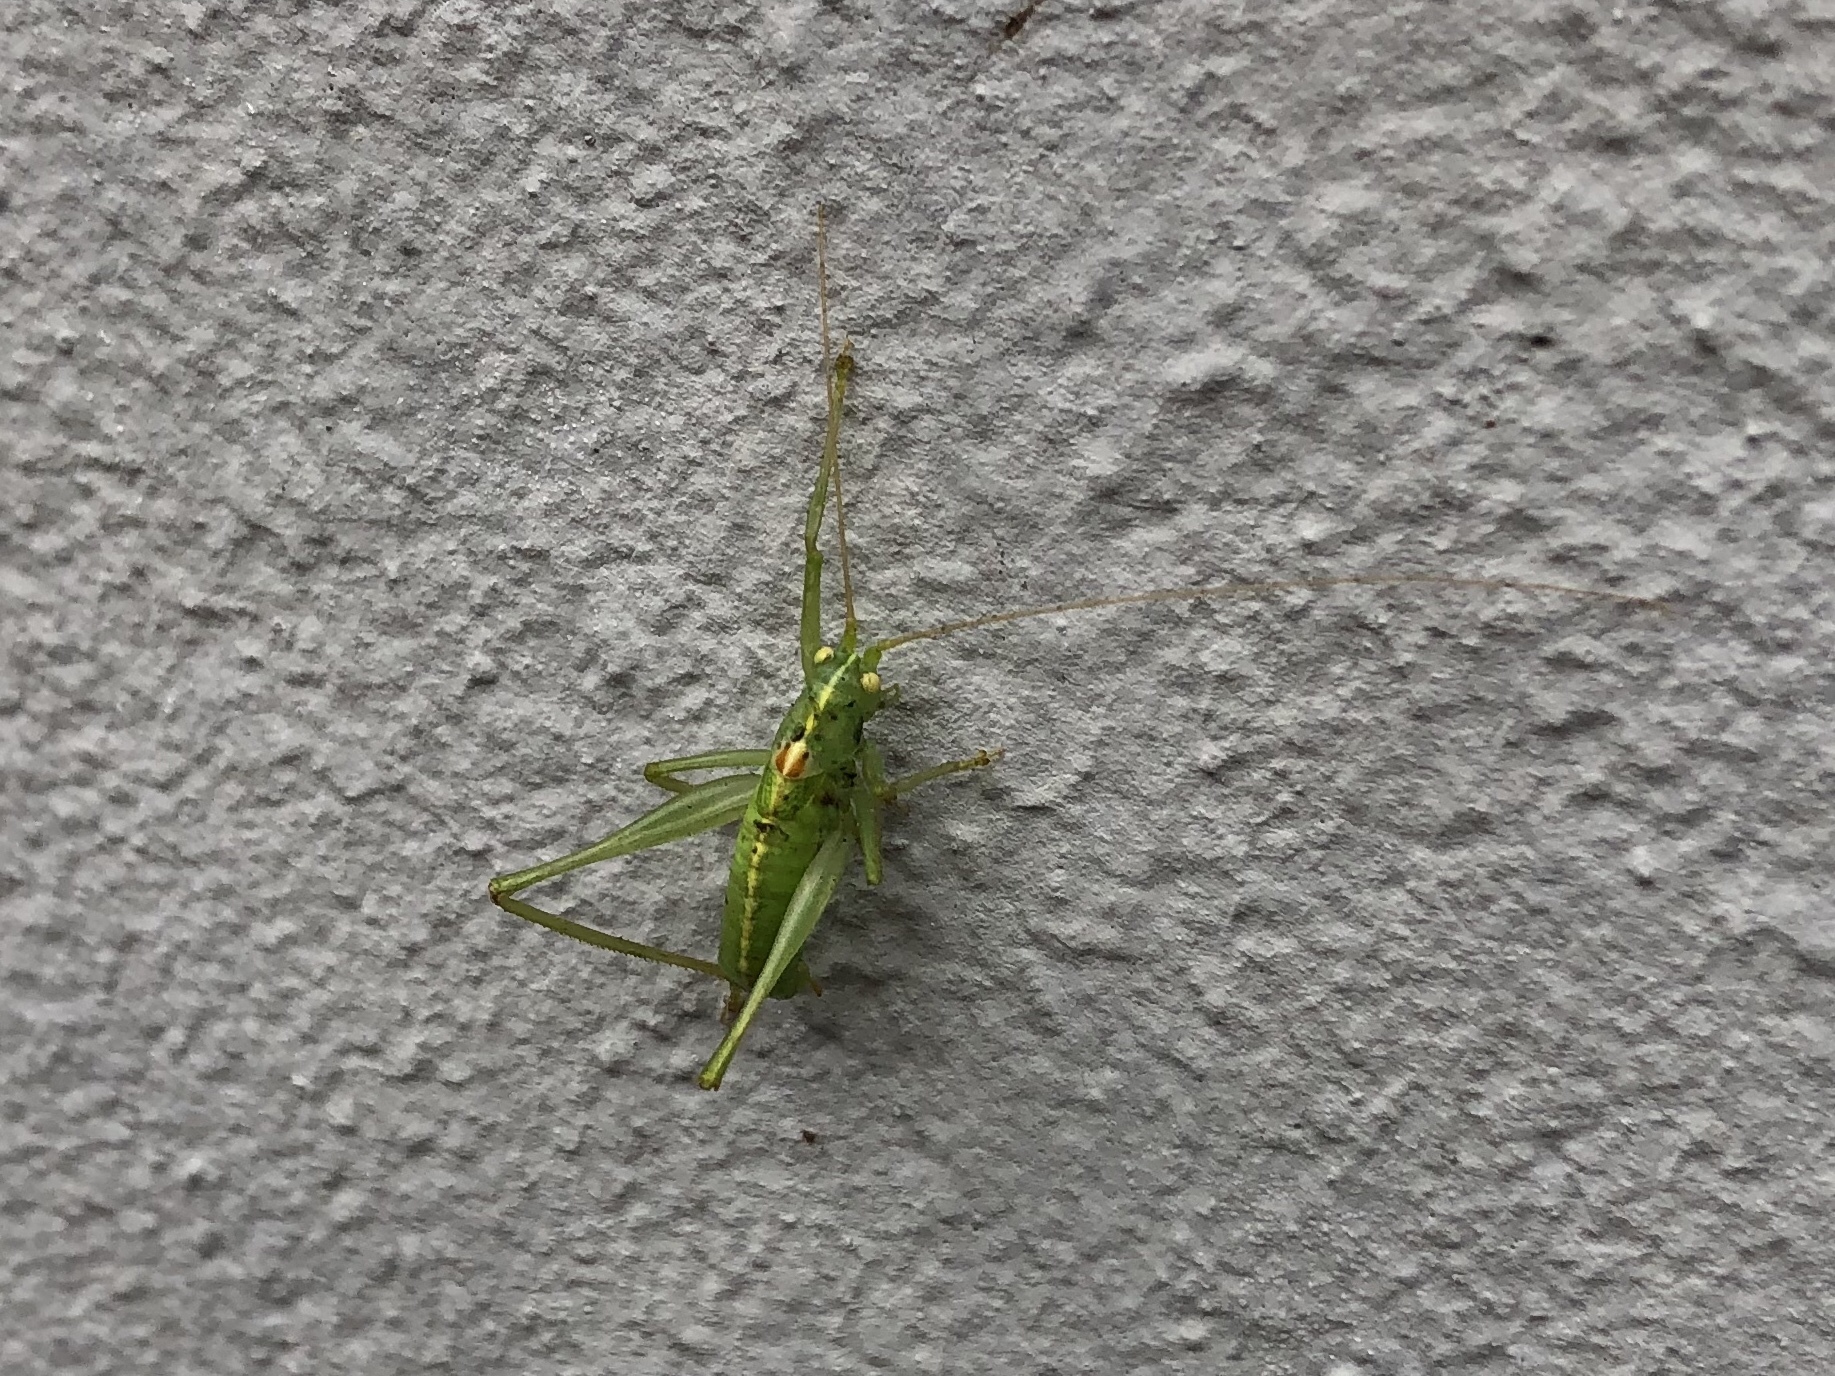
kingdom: Animalia
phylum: Arthropoda
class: Insecta
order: Orthoptera
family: Tettigoniidae
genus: Meconema
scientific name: Meconema meridionale
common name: Southern oak bush-cricket
